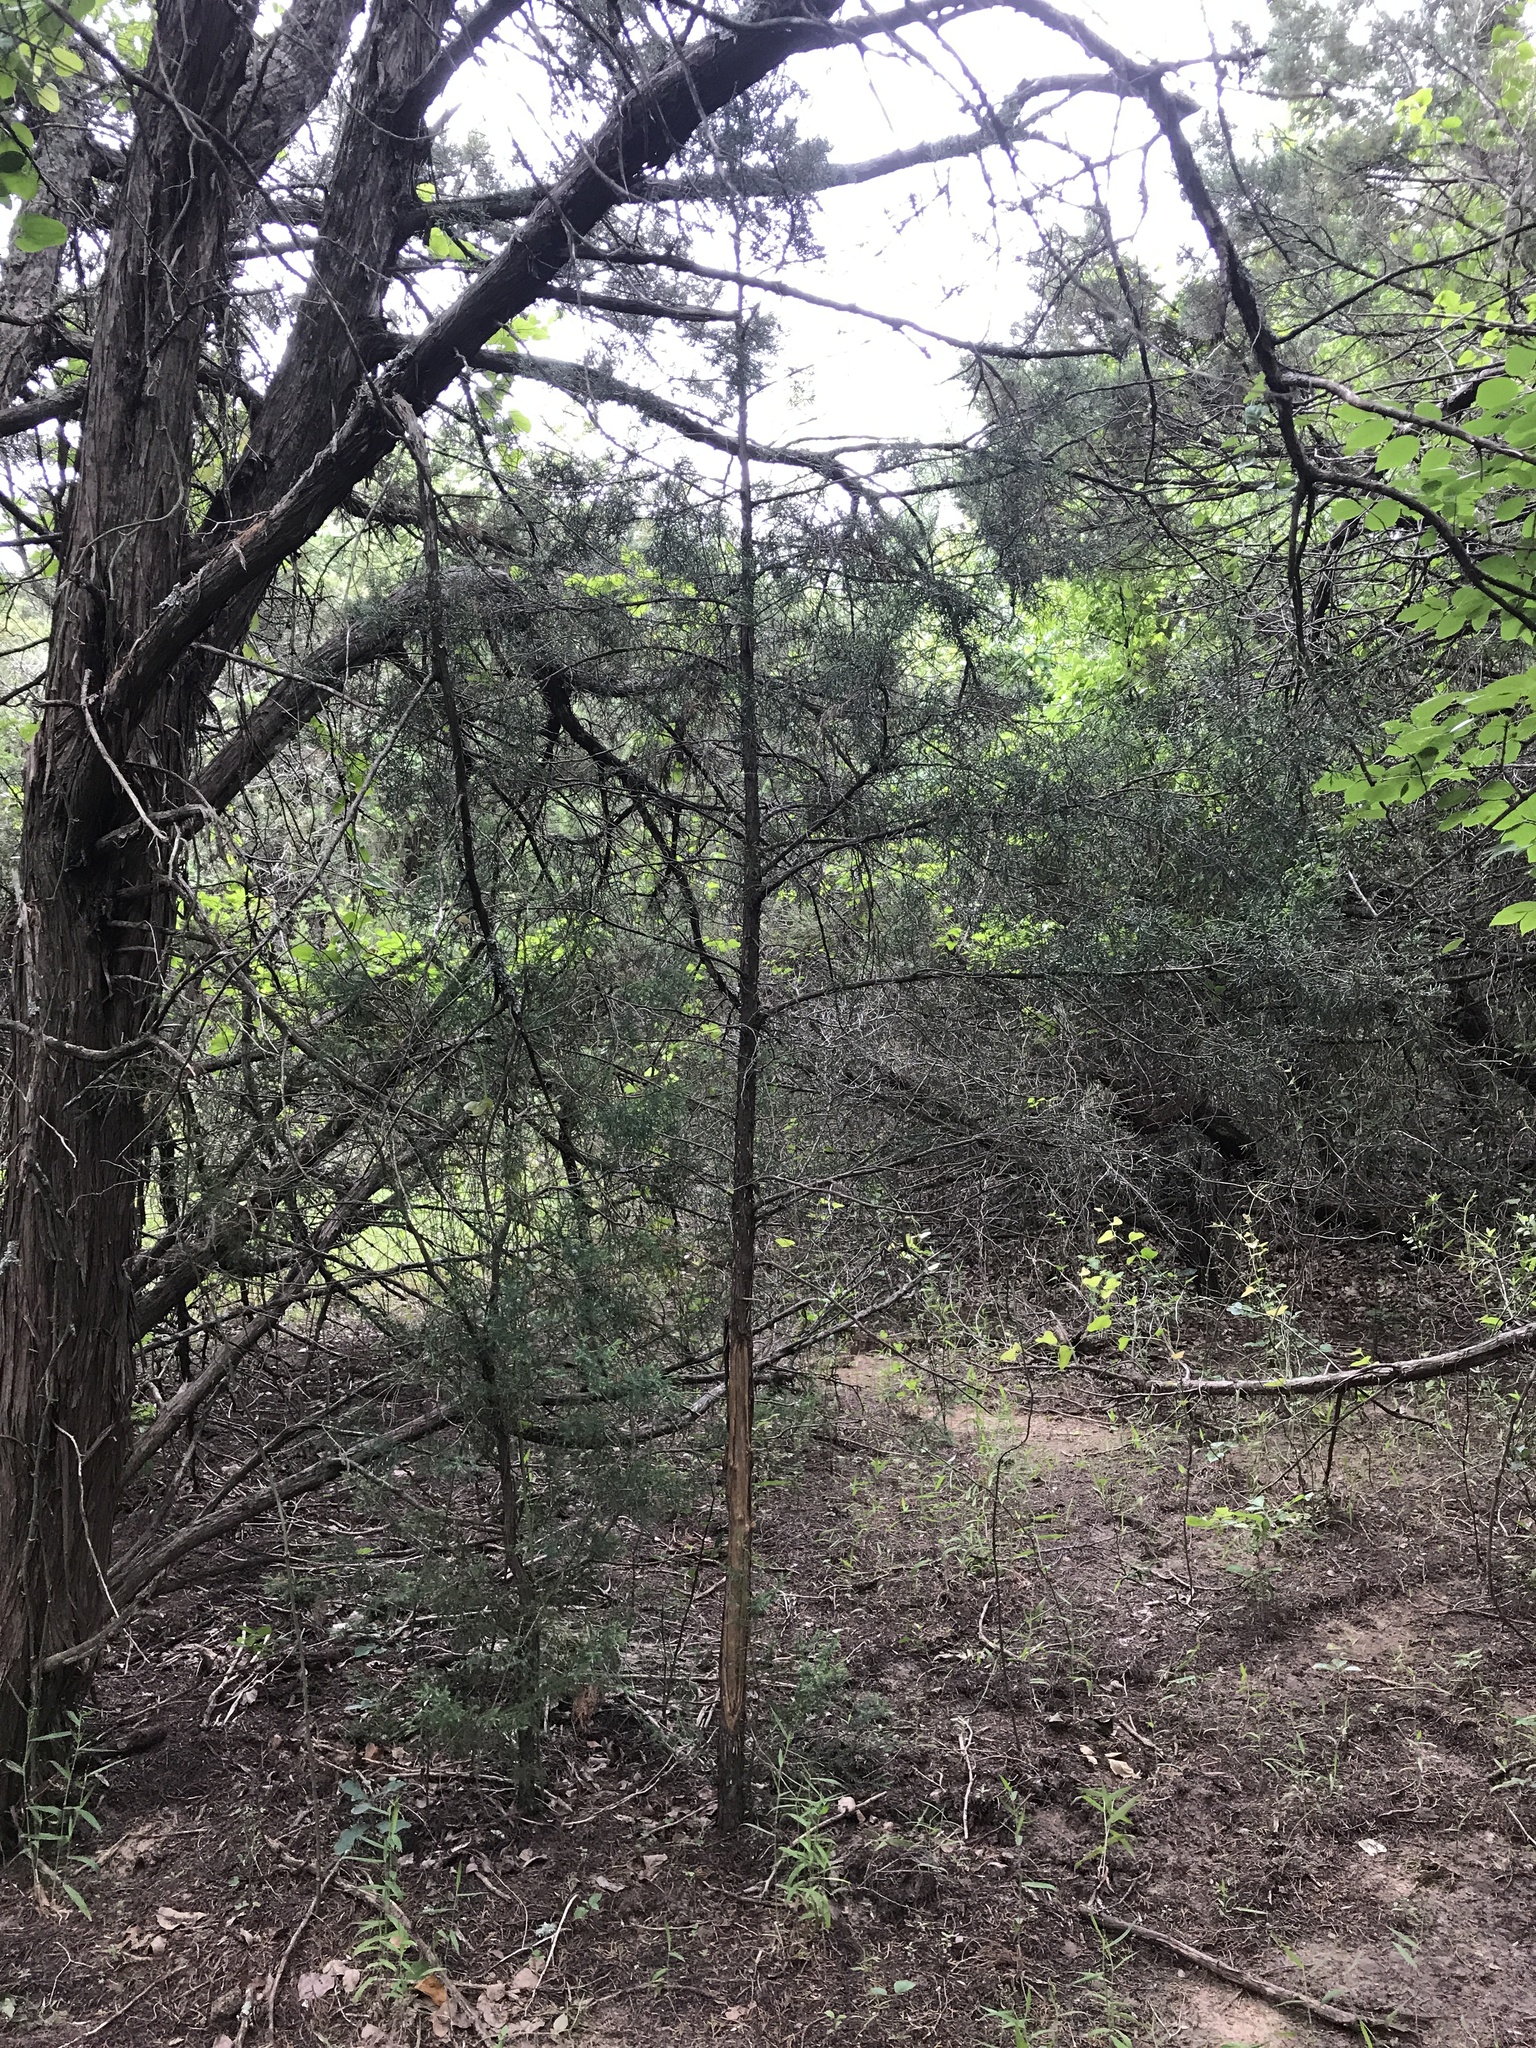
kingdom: Plantae
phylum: Tracheophyta
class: Pinopsida
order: Pinales
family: Cupressaceae
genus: Juniperus
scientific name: Juniperus virginiana
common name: Red juniper
